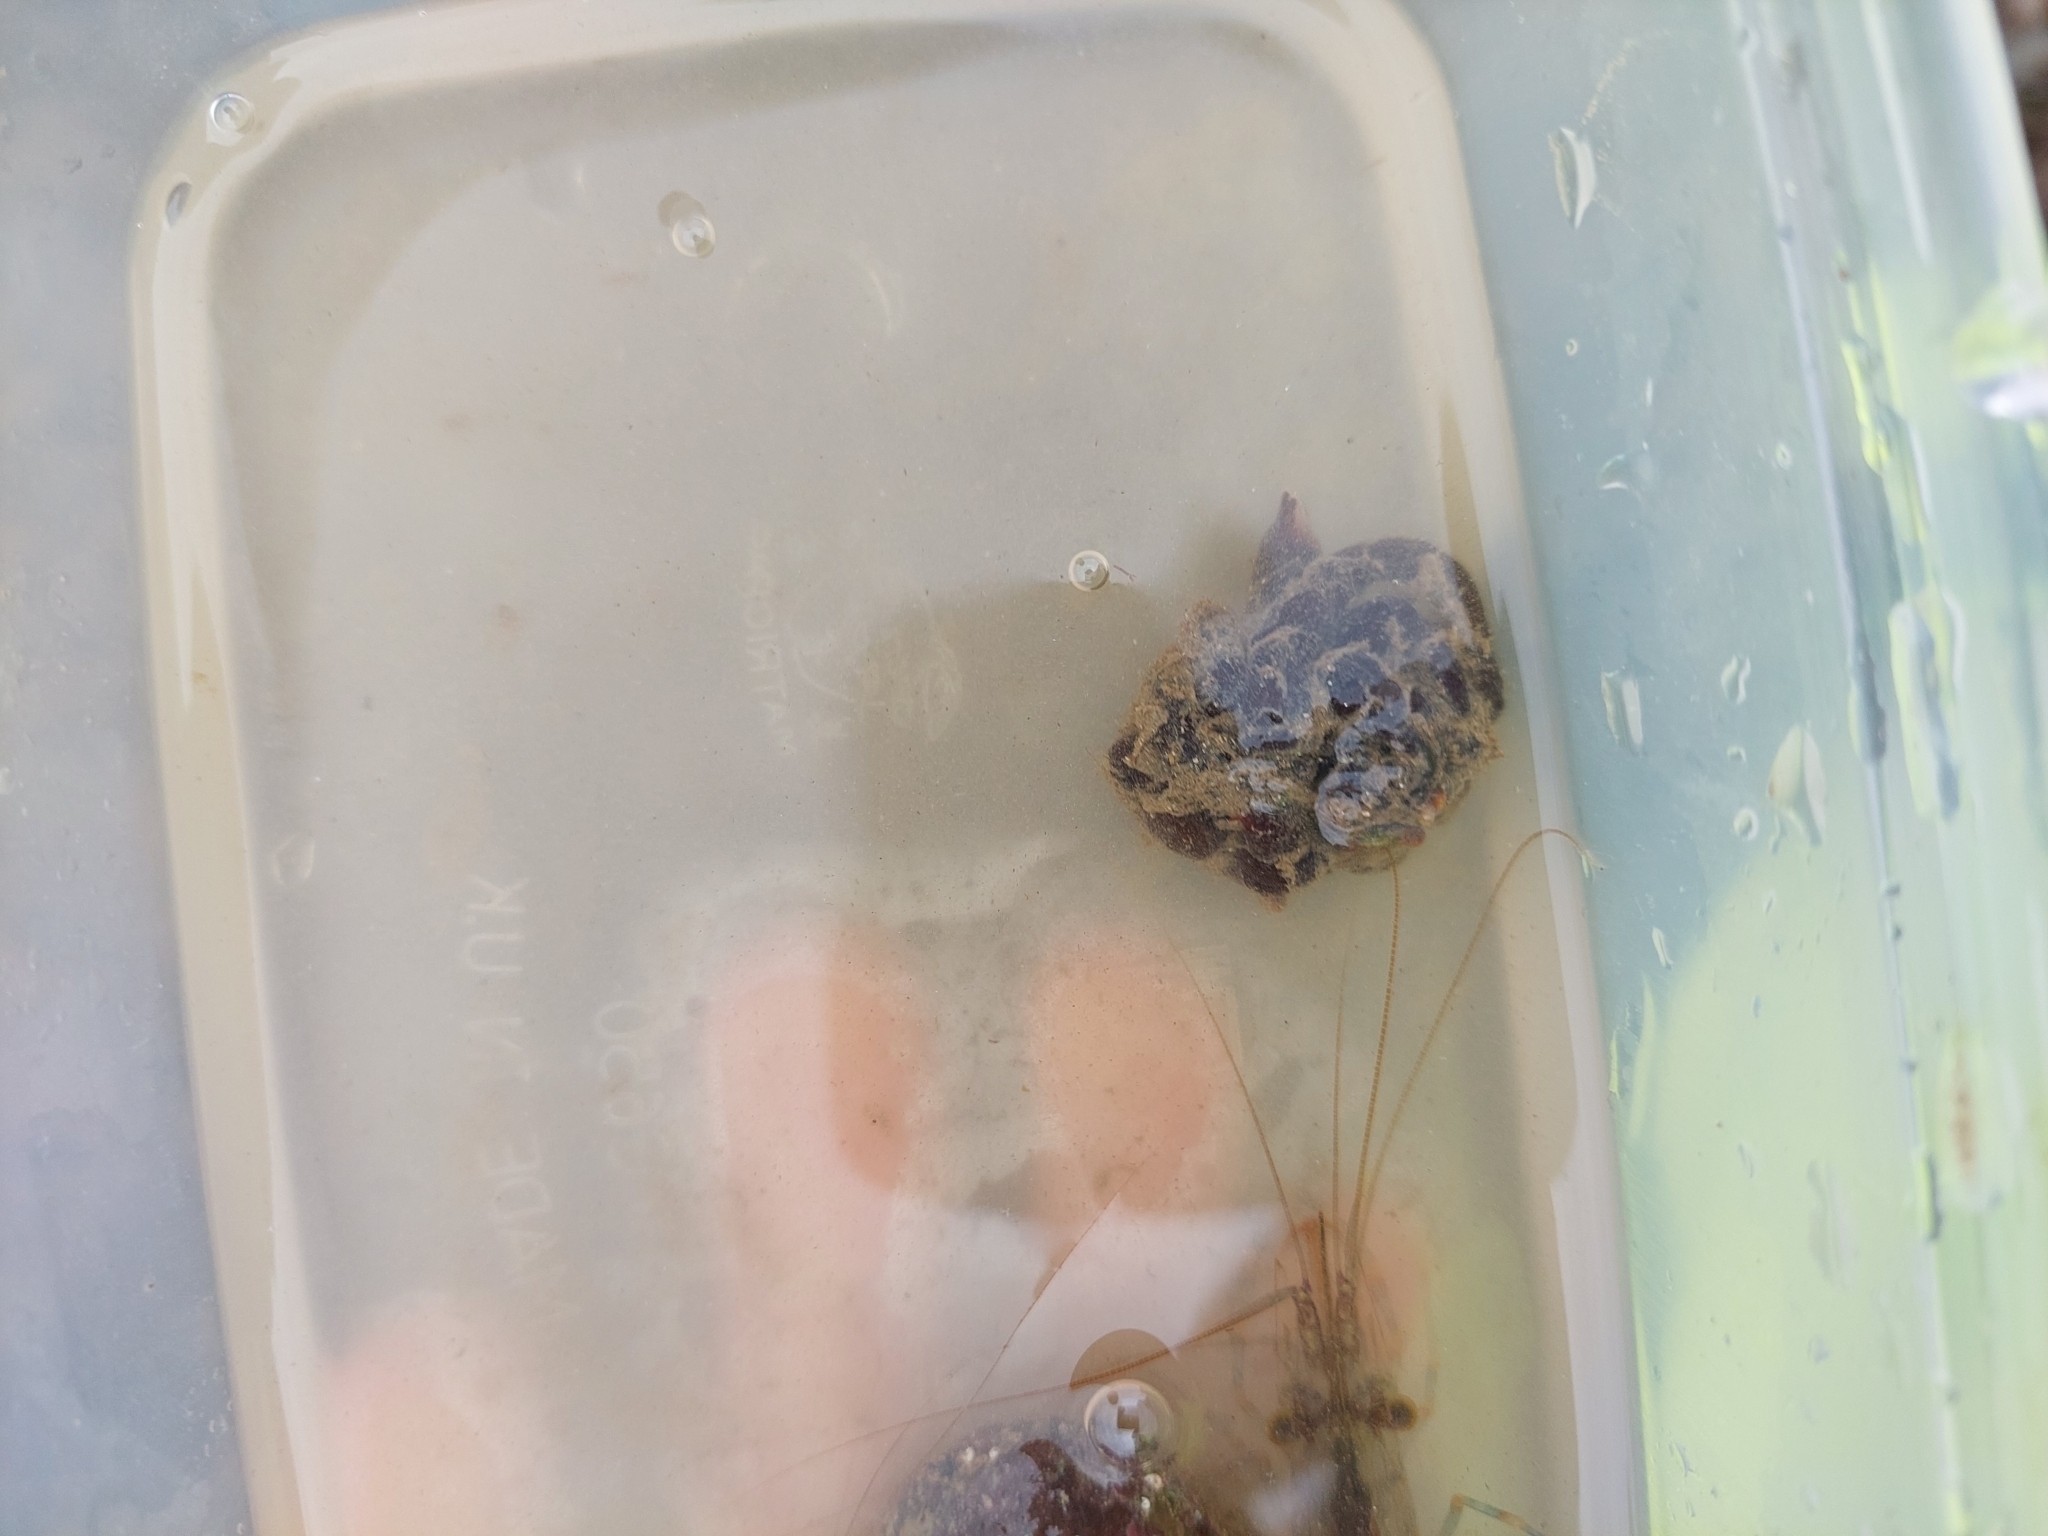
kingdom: Animalia
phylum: Nemertea
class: Pilidiophora
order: Heteronemertea
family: Lineidae
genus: Lineus
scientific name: Lineus longissimus
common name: Bootlace worm
